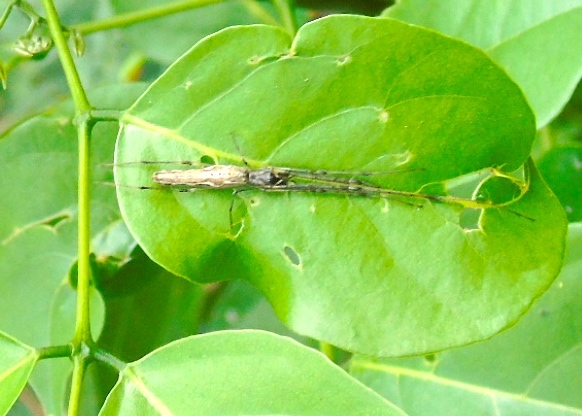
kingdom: Animalia
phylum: Arthropoda
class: Arachnida
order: Araneae
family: Tetragnathidae
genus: Tetragnatha
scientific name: Tetragnatha
